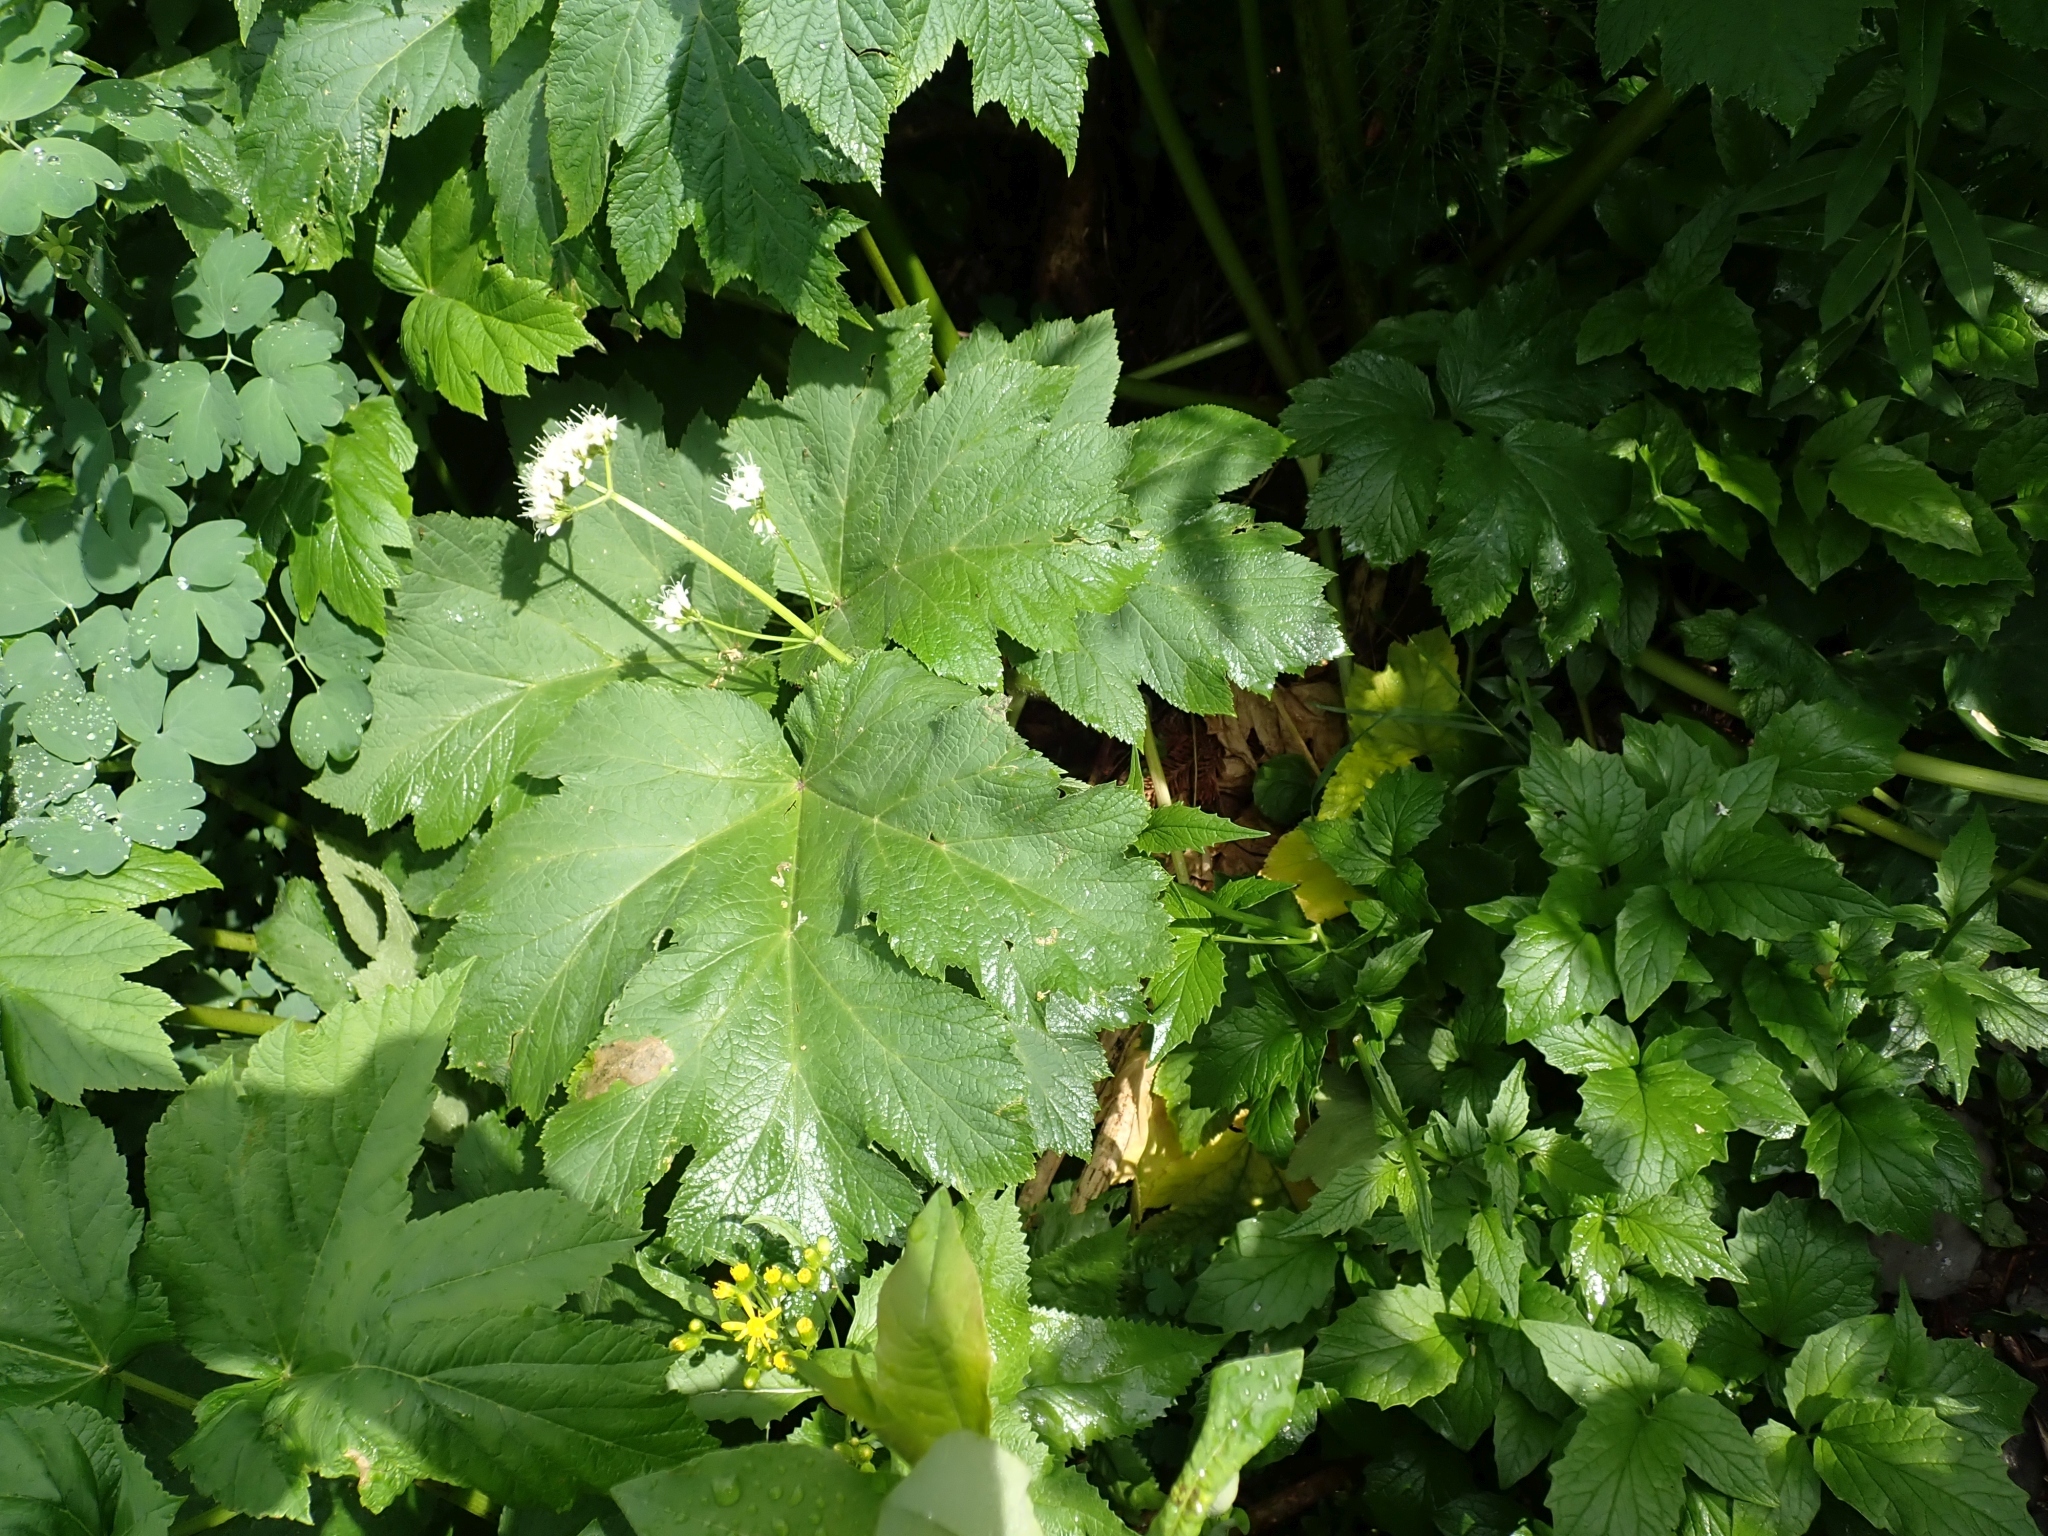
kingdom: Plantae
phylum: Tracheophyta
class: Magnoliopsida
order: Apiales
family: Apiaceae
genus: Heracleum
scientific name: Heracleum maximum
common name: American cow parsnip
